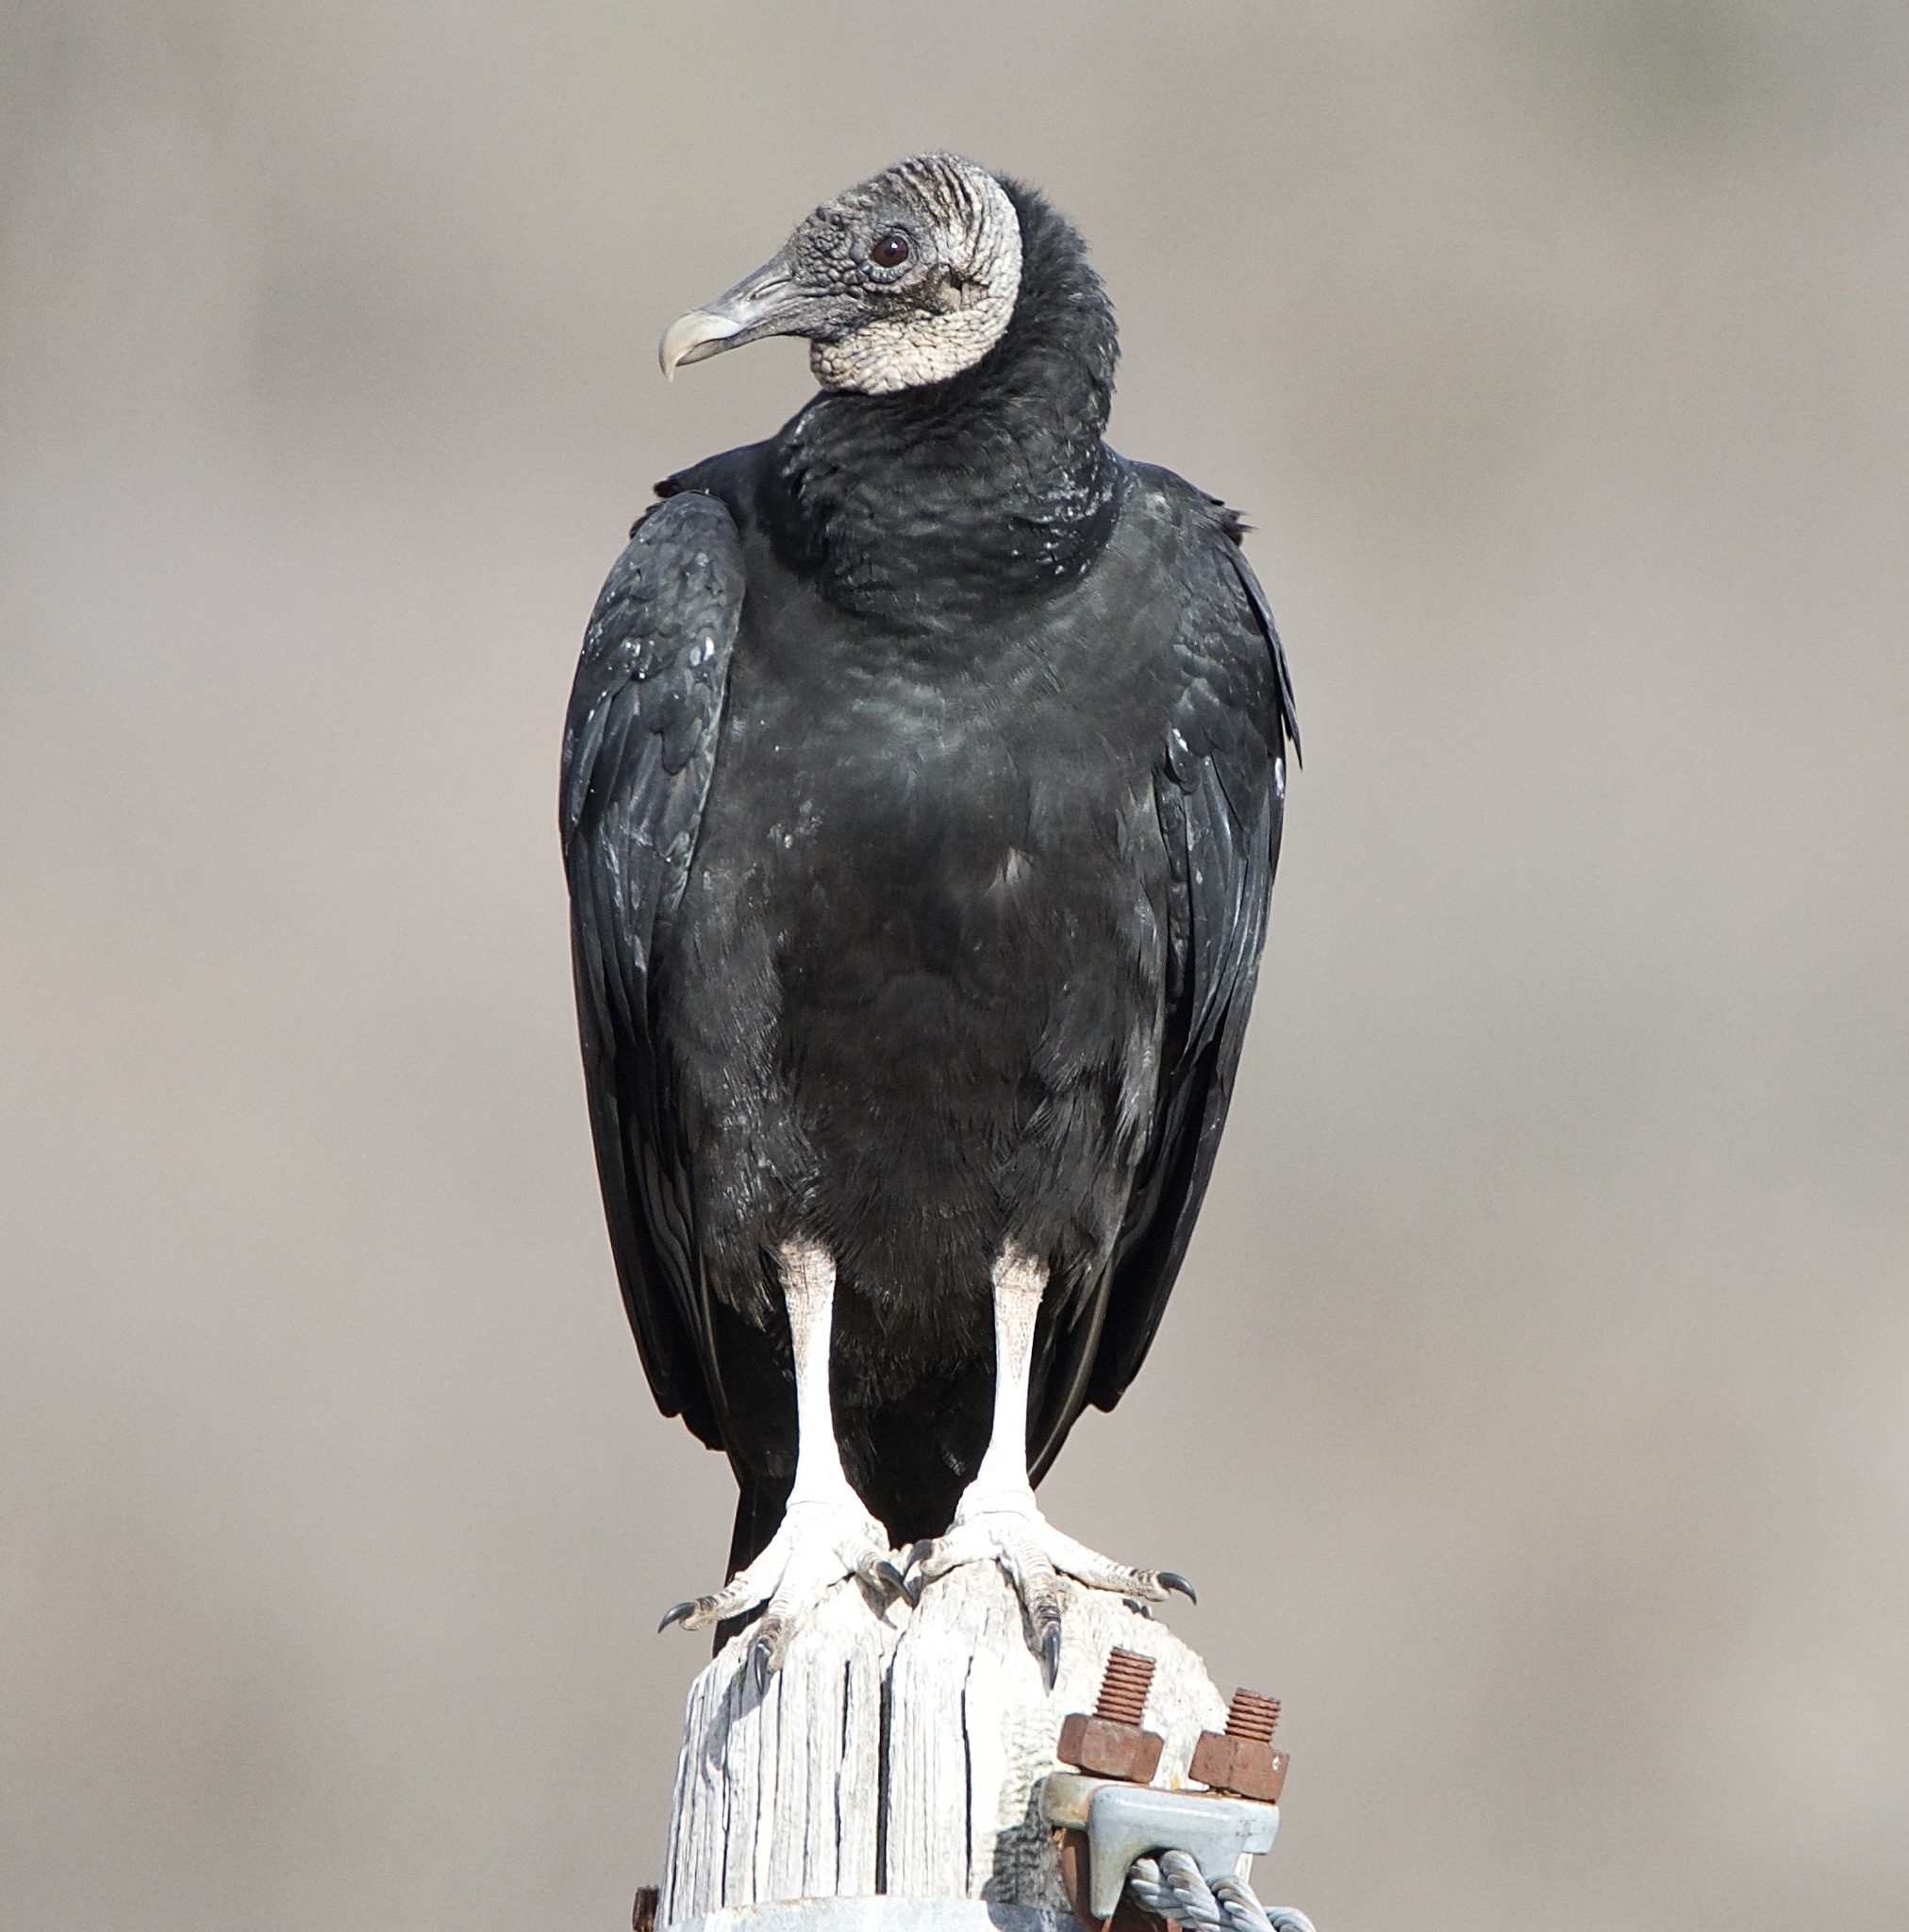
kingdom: Animalia
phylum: Chordata
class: Aves
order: Accipitriformes
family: Cathartidae
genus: Coragyps
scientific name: Coragyps atratus
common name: Black vulture
